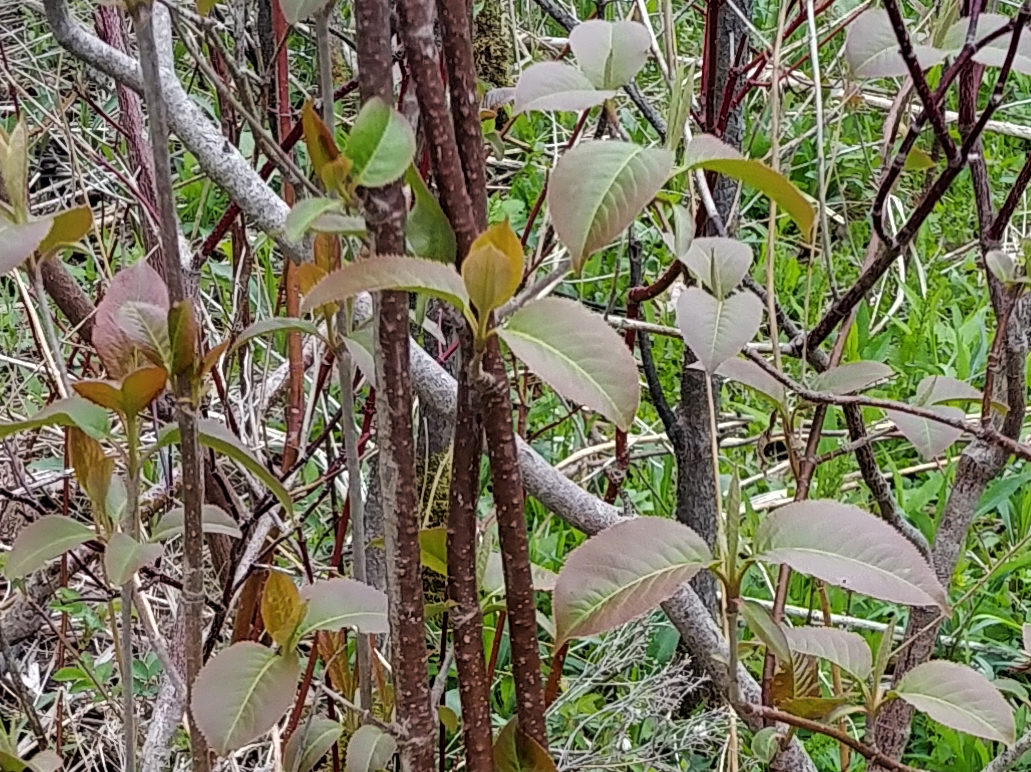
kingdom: Plantae
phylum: Tracheophyta
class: Magnoliopsida
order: Dipsacales
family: Viburnaceae
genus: Viburnum
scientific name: Viburnum lentago
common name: Black haw
